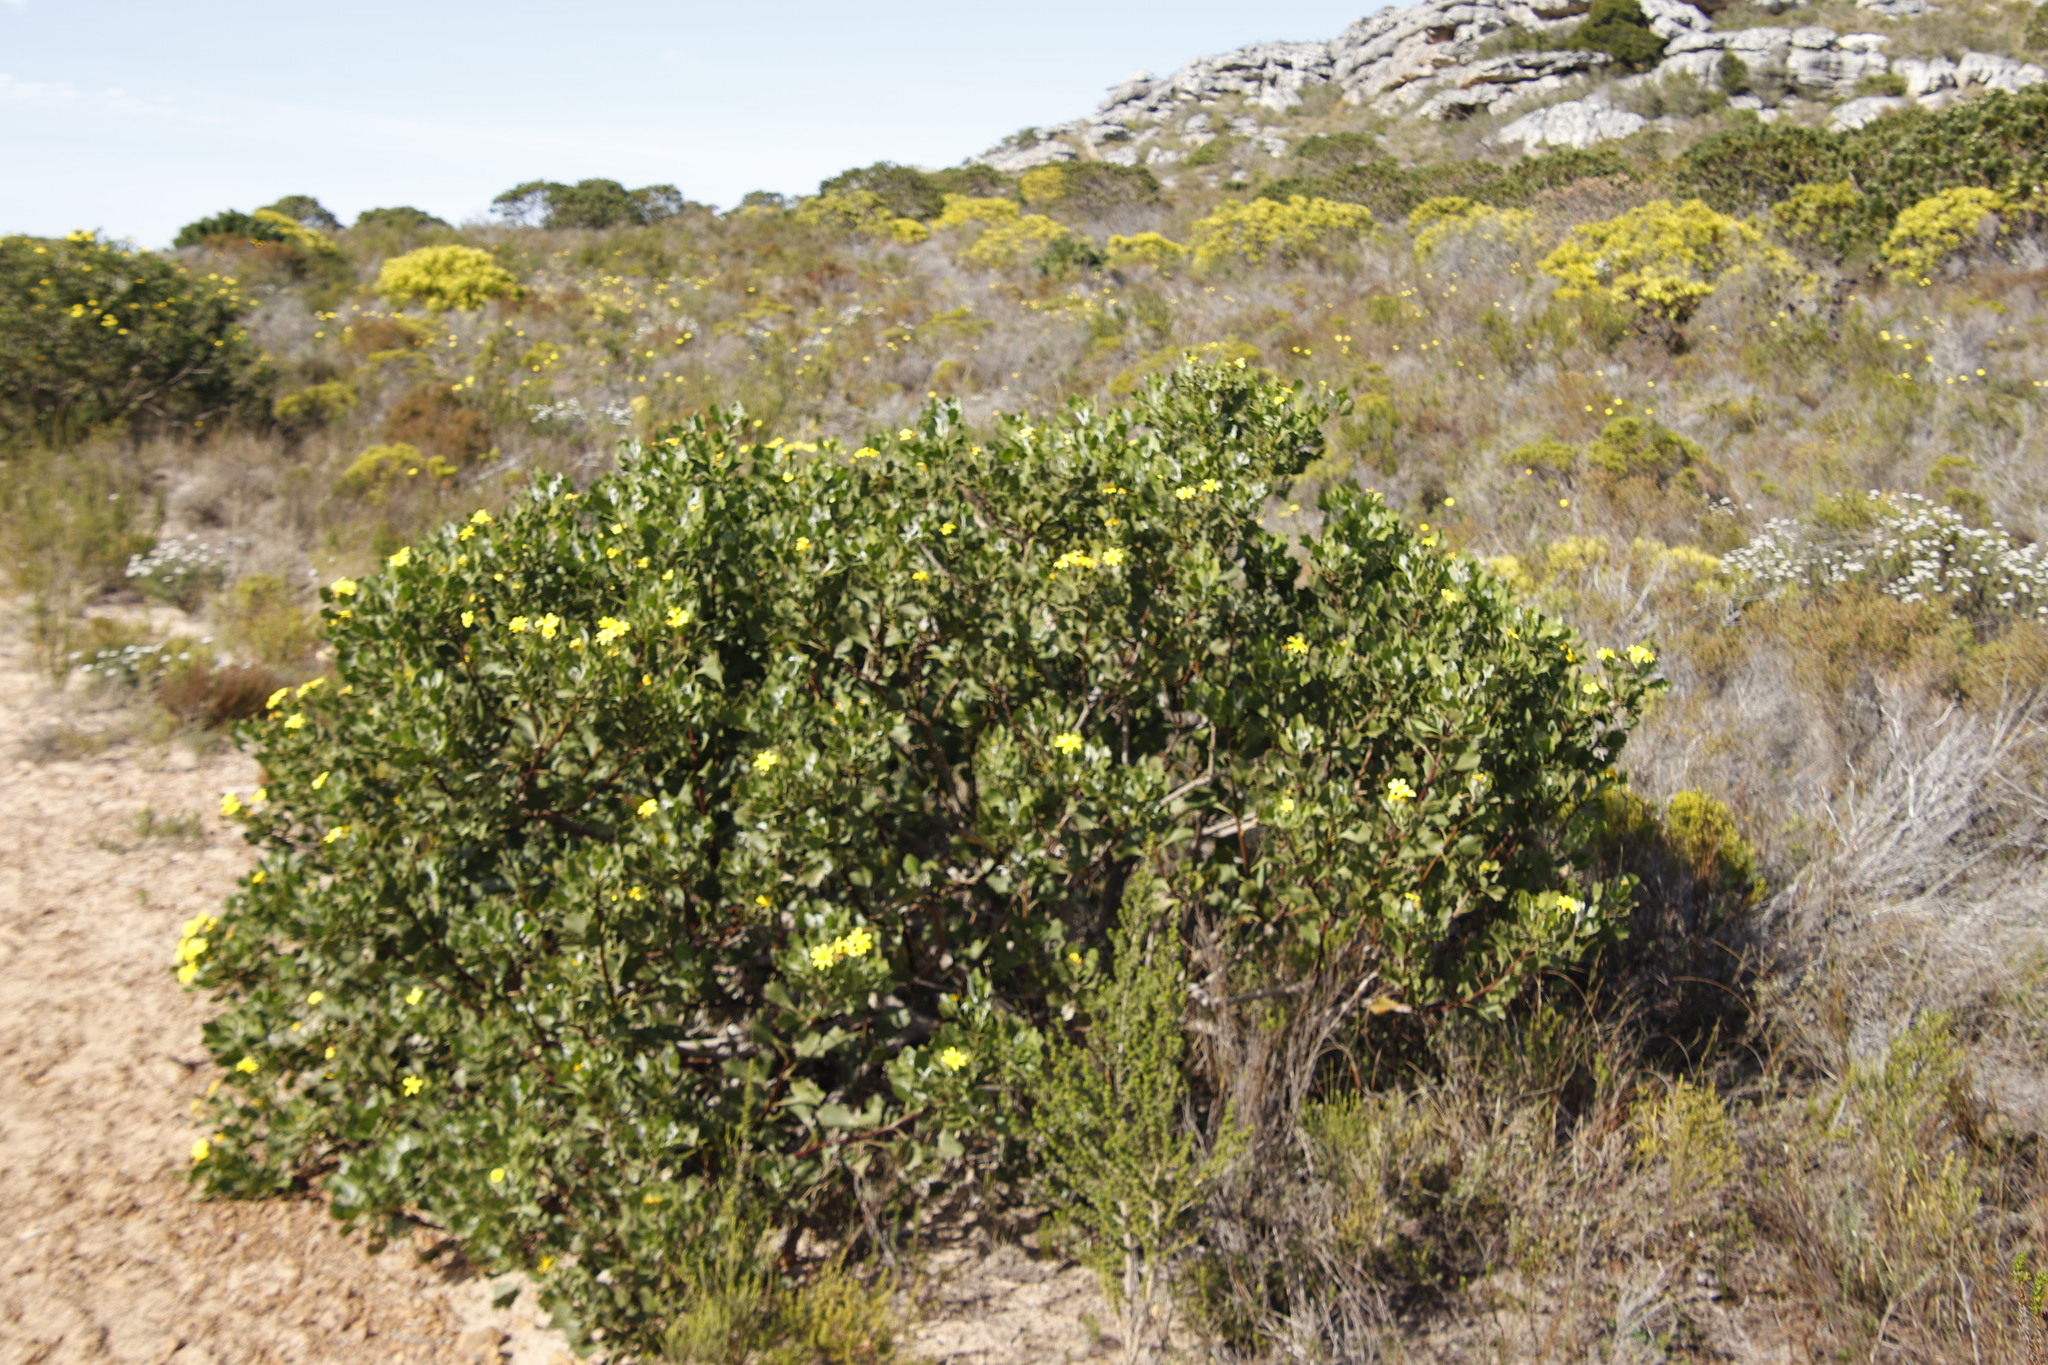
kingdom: Plantae
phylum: Tracheophyta
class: Magnoliopsida
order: Asterales
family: Asteraceae
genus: Osteospermum
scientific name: Osteospermum moniliferum
